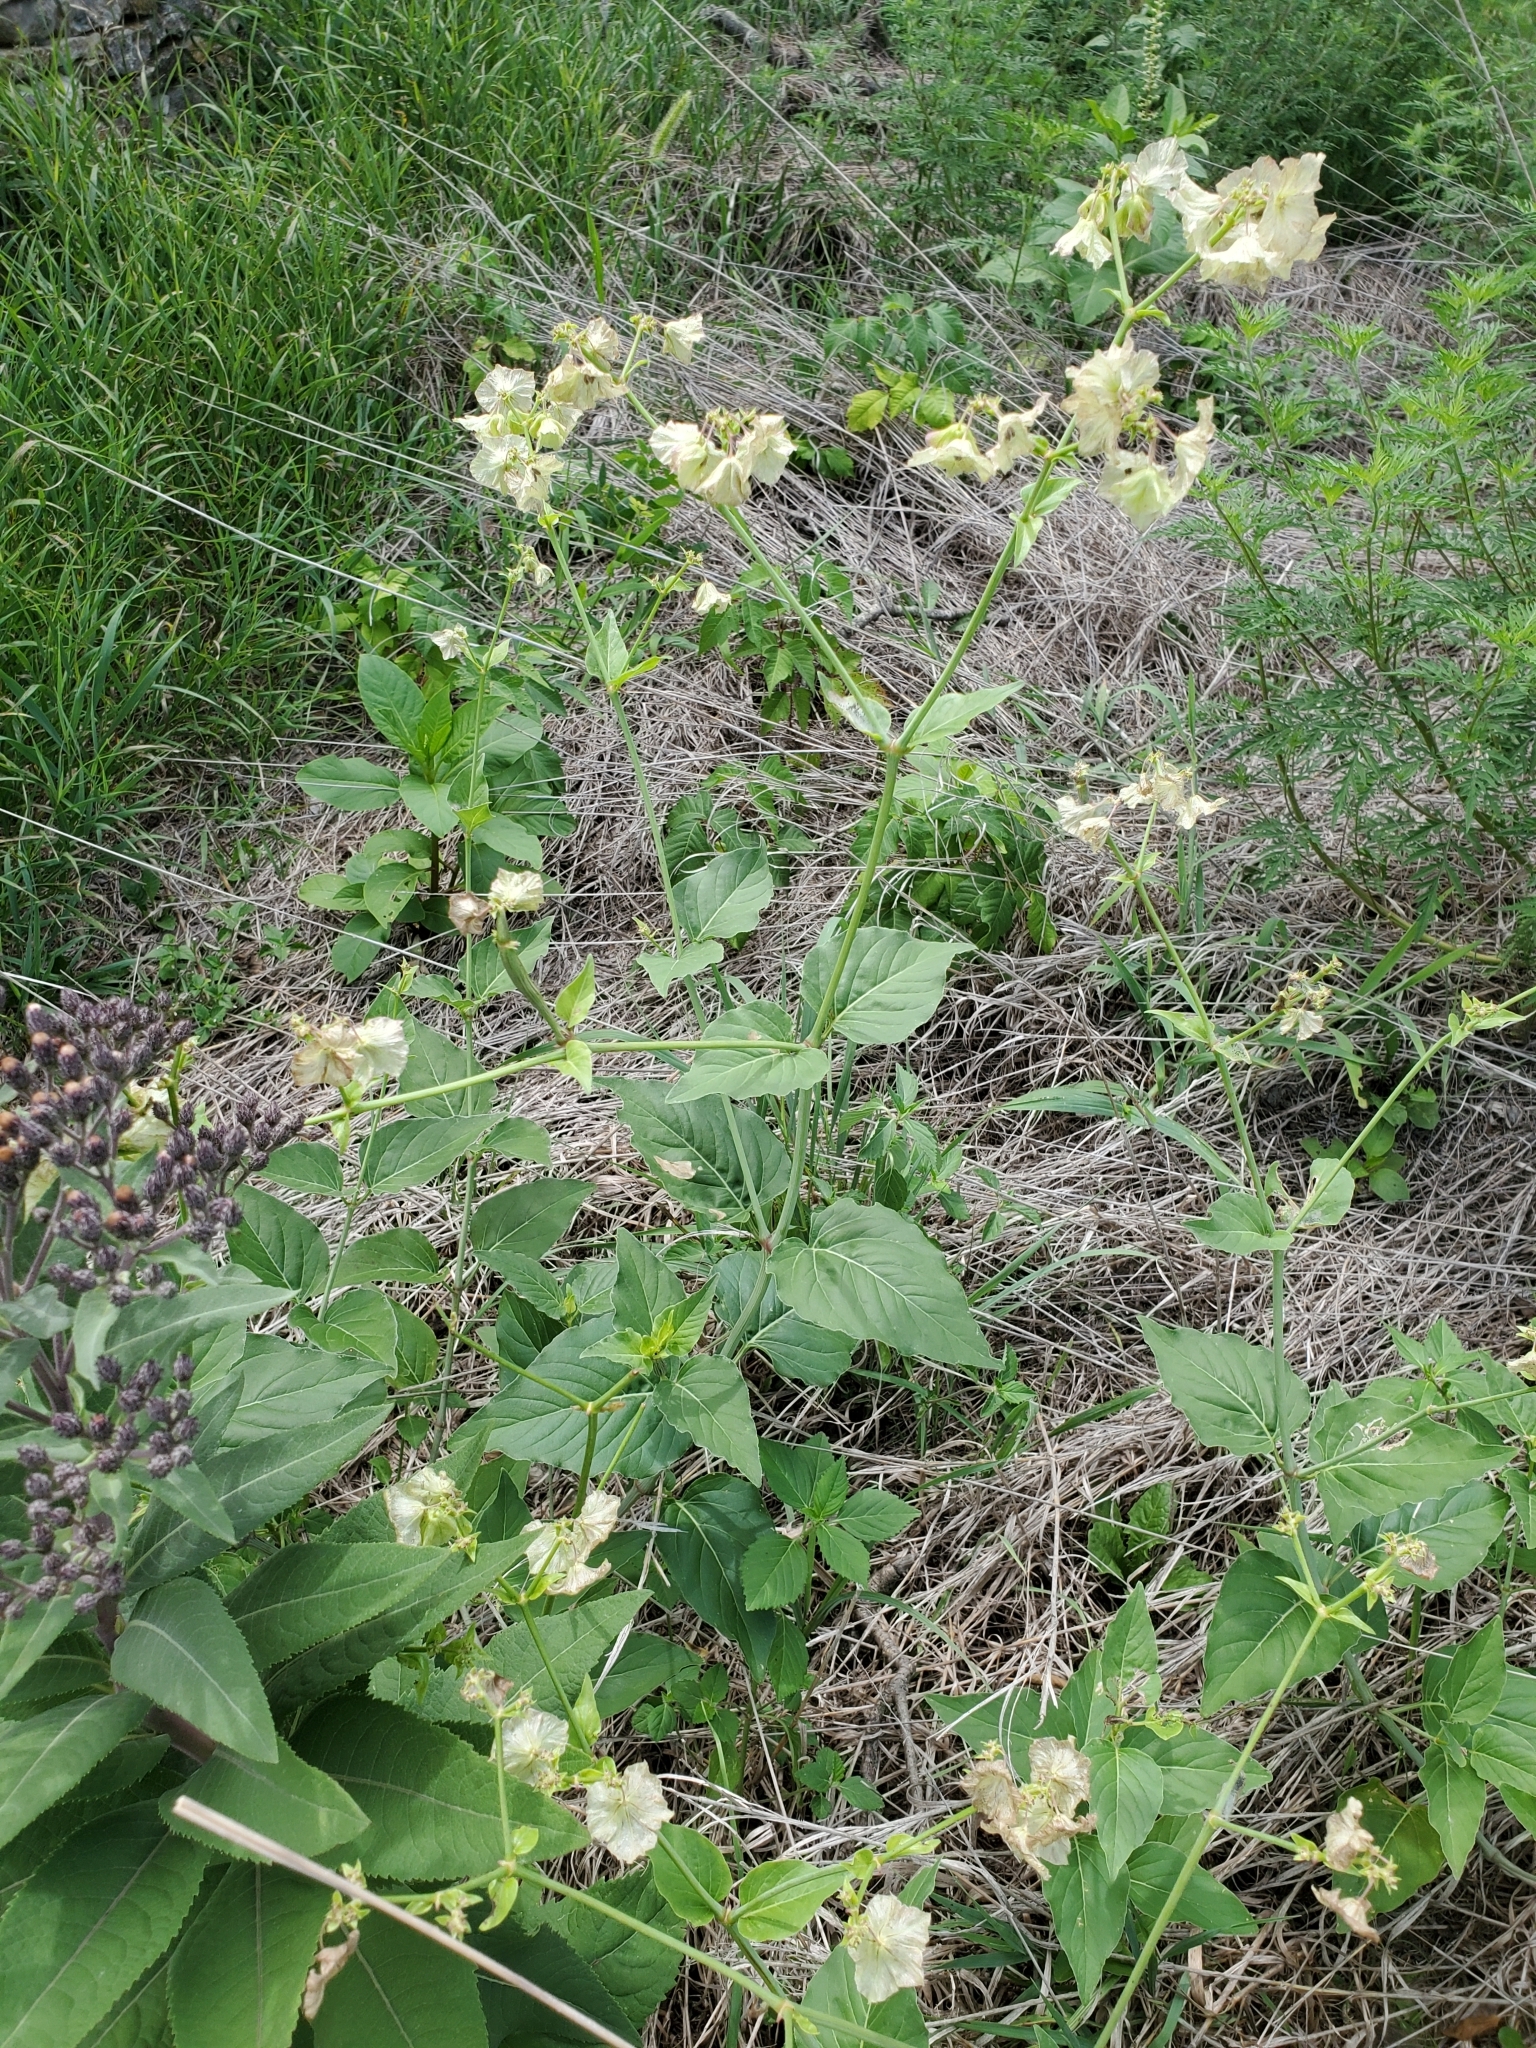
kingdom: Plantae
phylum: Tracheophyta
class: Magnoliopsida
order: Caryophyllales
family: Nyctaginaceae
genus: Mirabilis
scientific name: Mirabilis nyctaginea
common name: Umbrella wort
